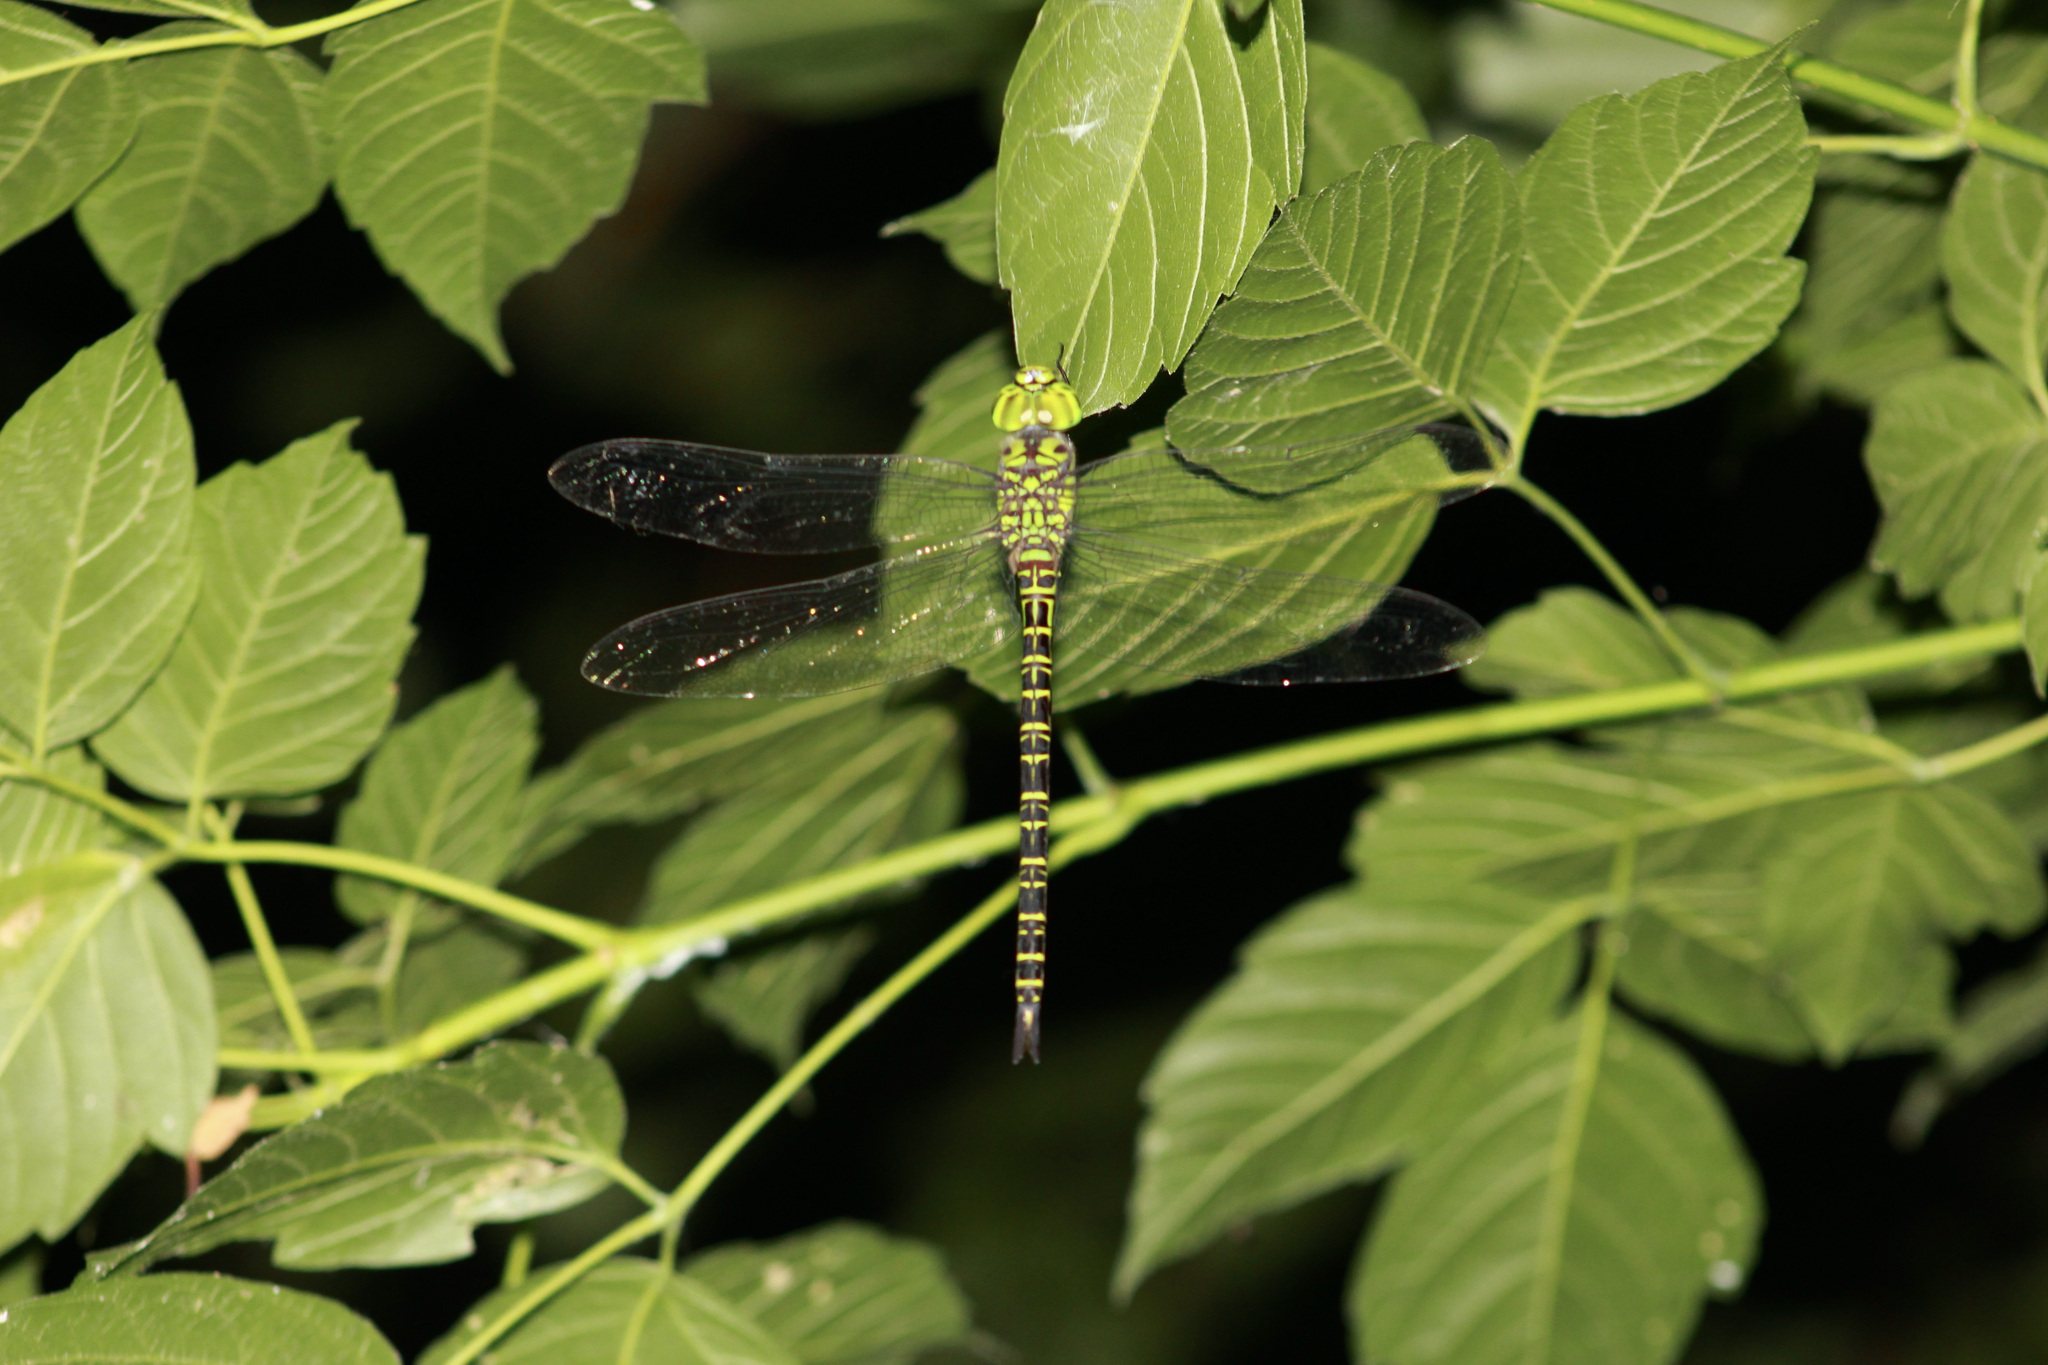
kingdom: Animalia
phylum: Arthropoda
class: Insecta
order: Odonata
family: Aeshnidae
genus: Coryphaeschna
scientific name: Coryphaeschna ingens
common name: Regal darner
